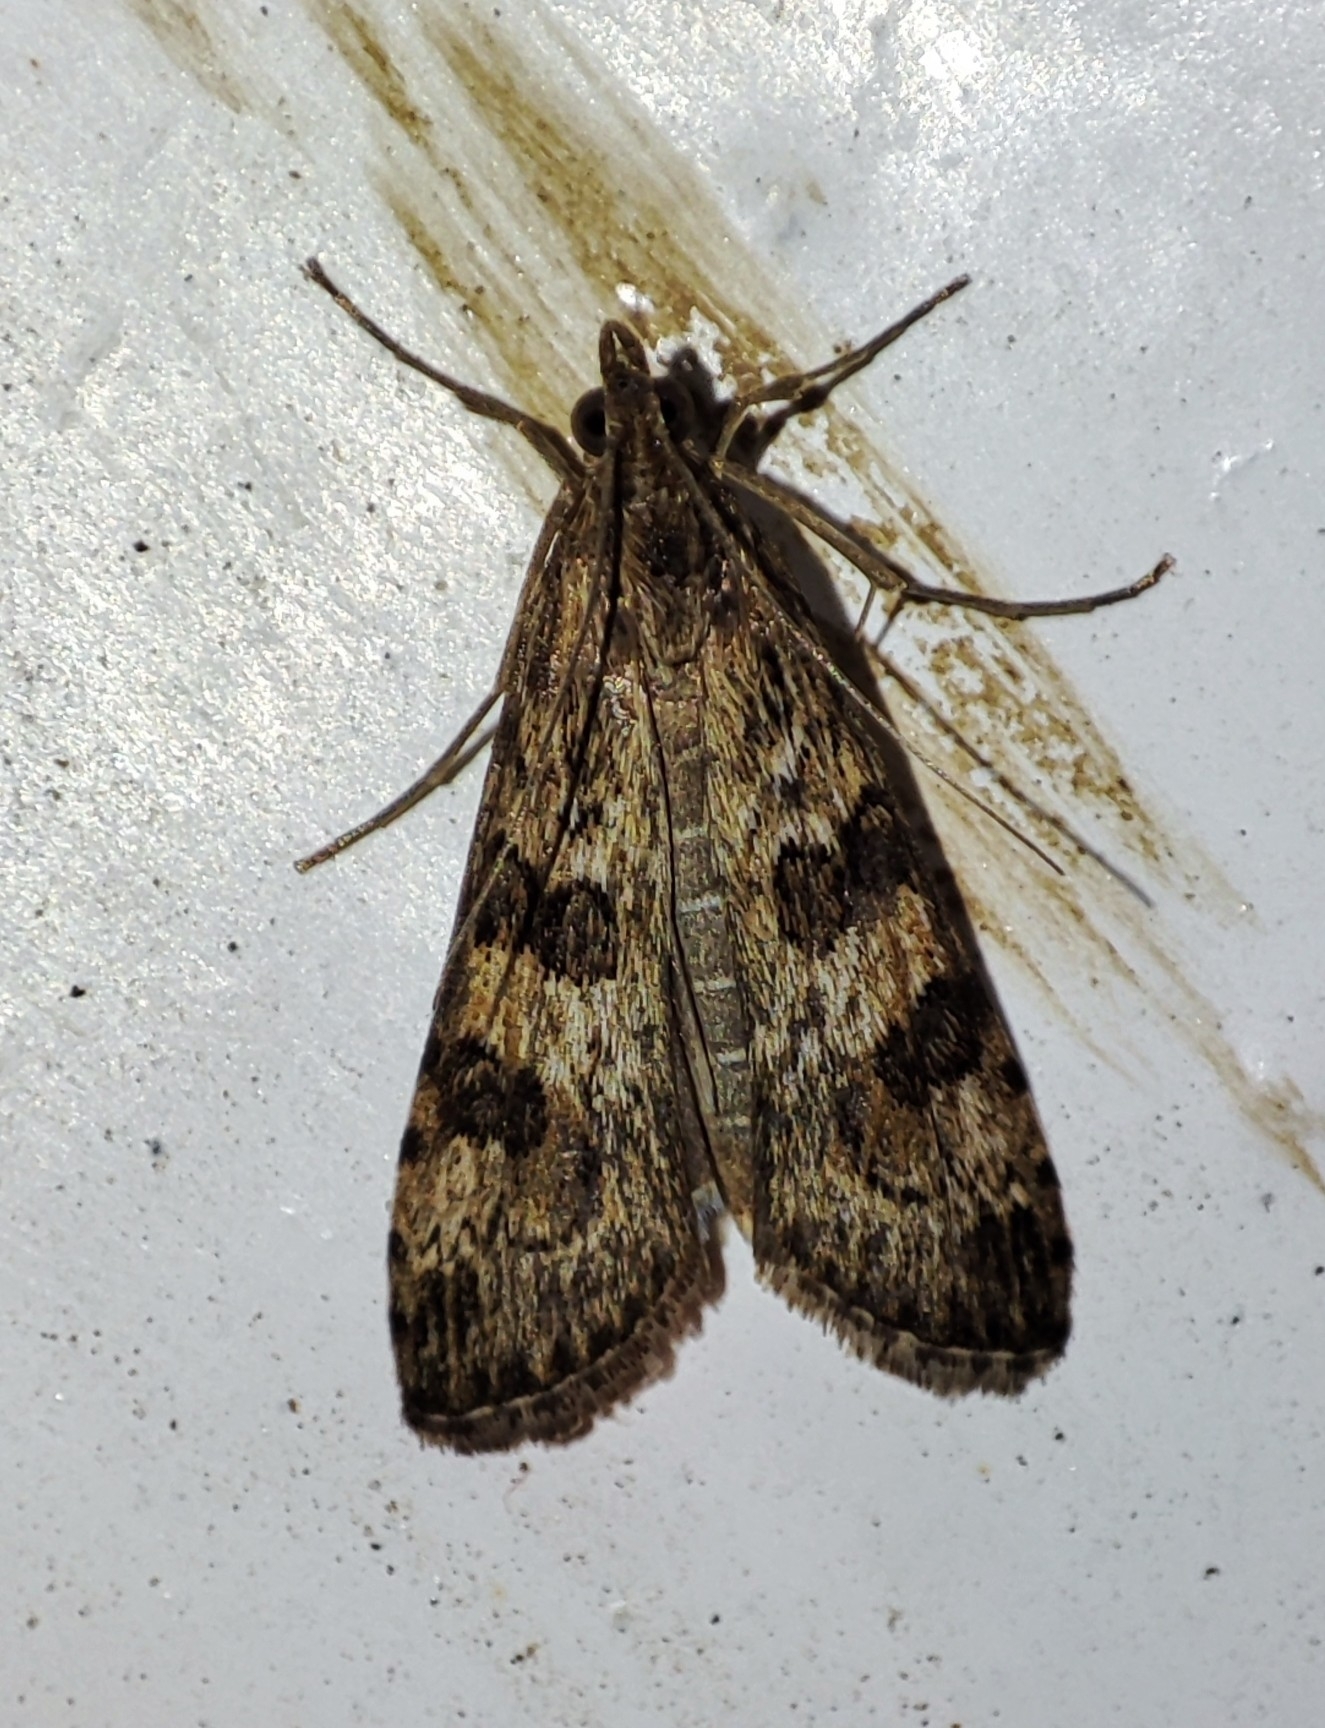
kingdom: Animalia
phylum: Arthropoda
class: Insecta
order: Lepidoptera
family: Crambidae
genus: Nomophila
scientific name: Nomophila noctuella
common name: Rush veneer
